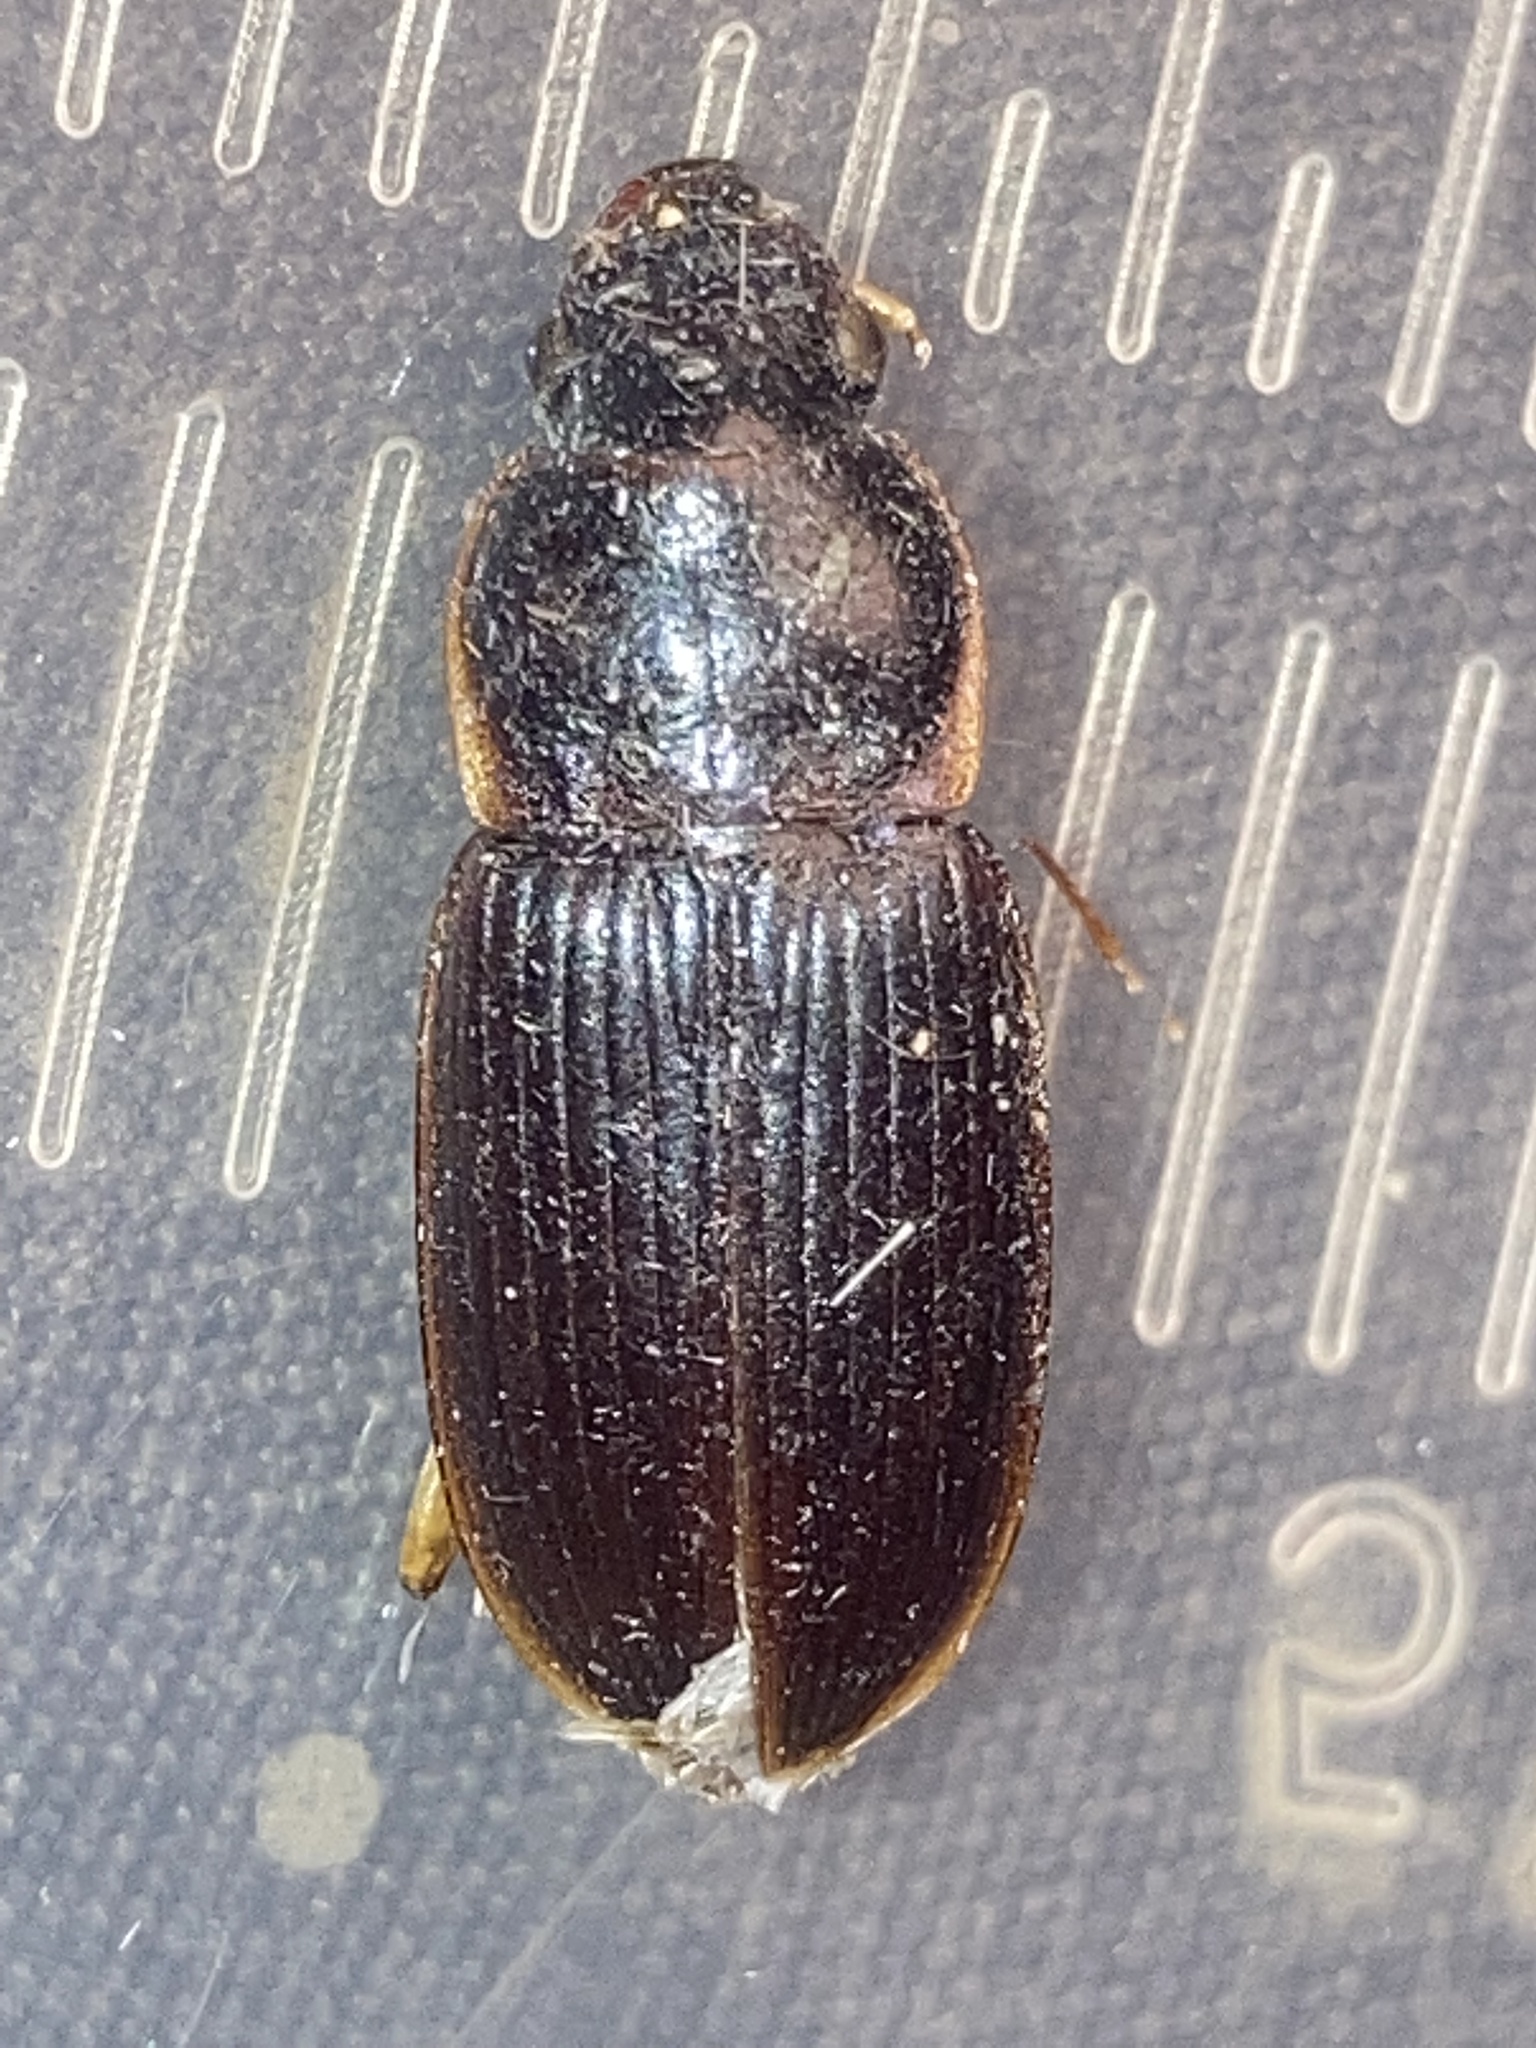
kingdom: Animalia
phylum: Arthropoda
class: Insecta
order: Coleoptera
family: Carabidae
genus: Harpalus
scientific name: Harpalus pensylvanicus
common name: Pennsylvania dingy ground beetle
